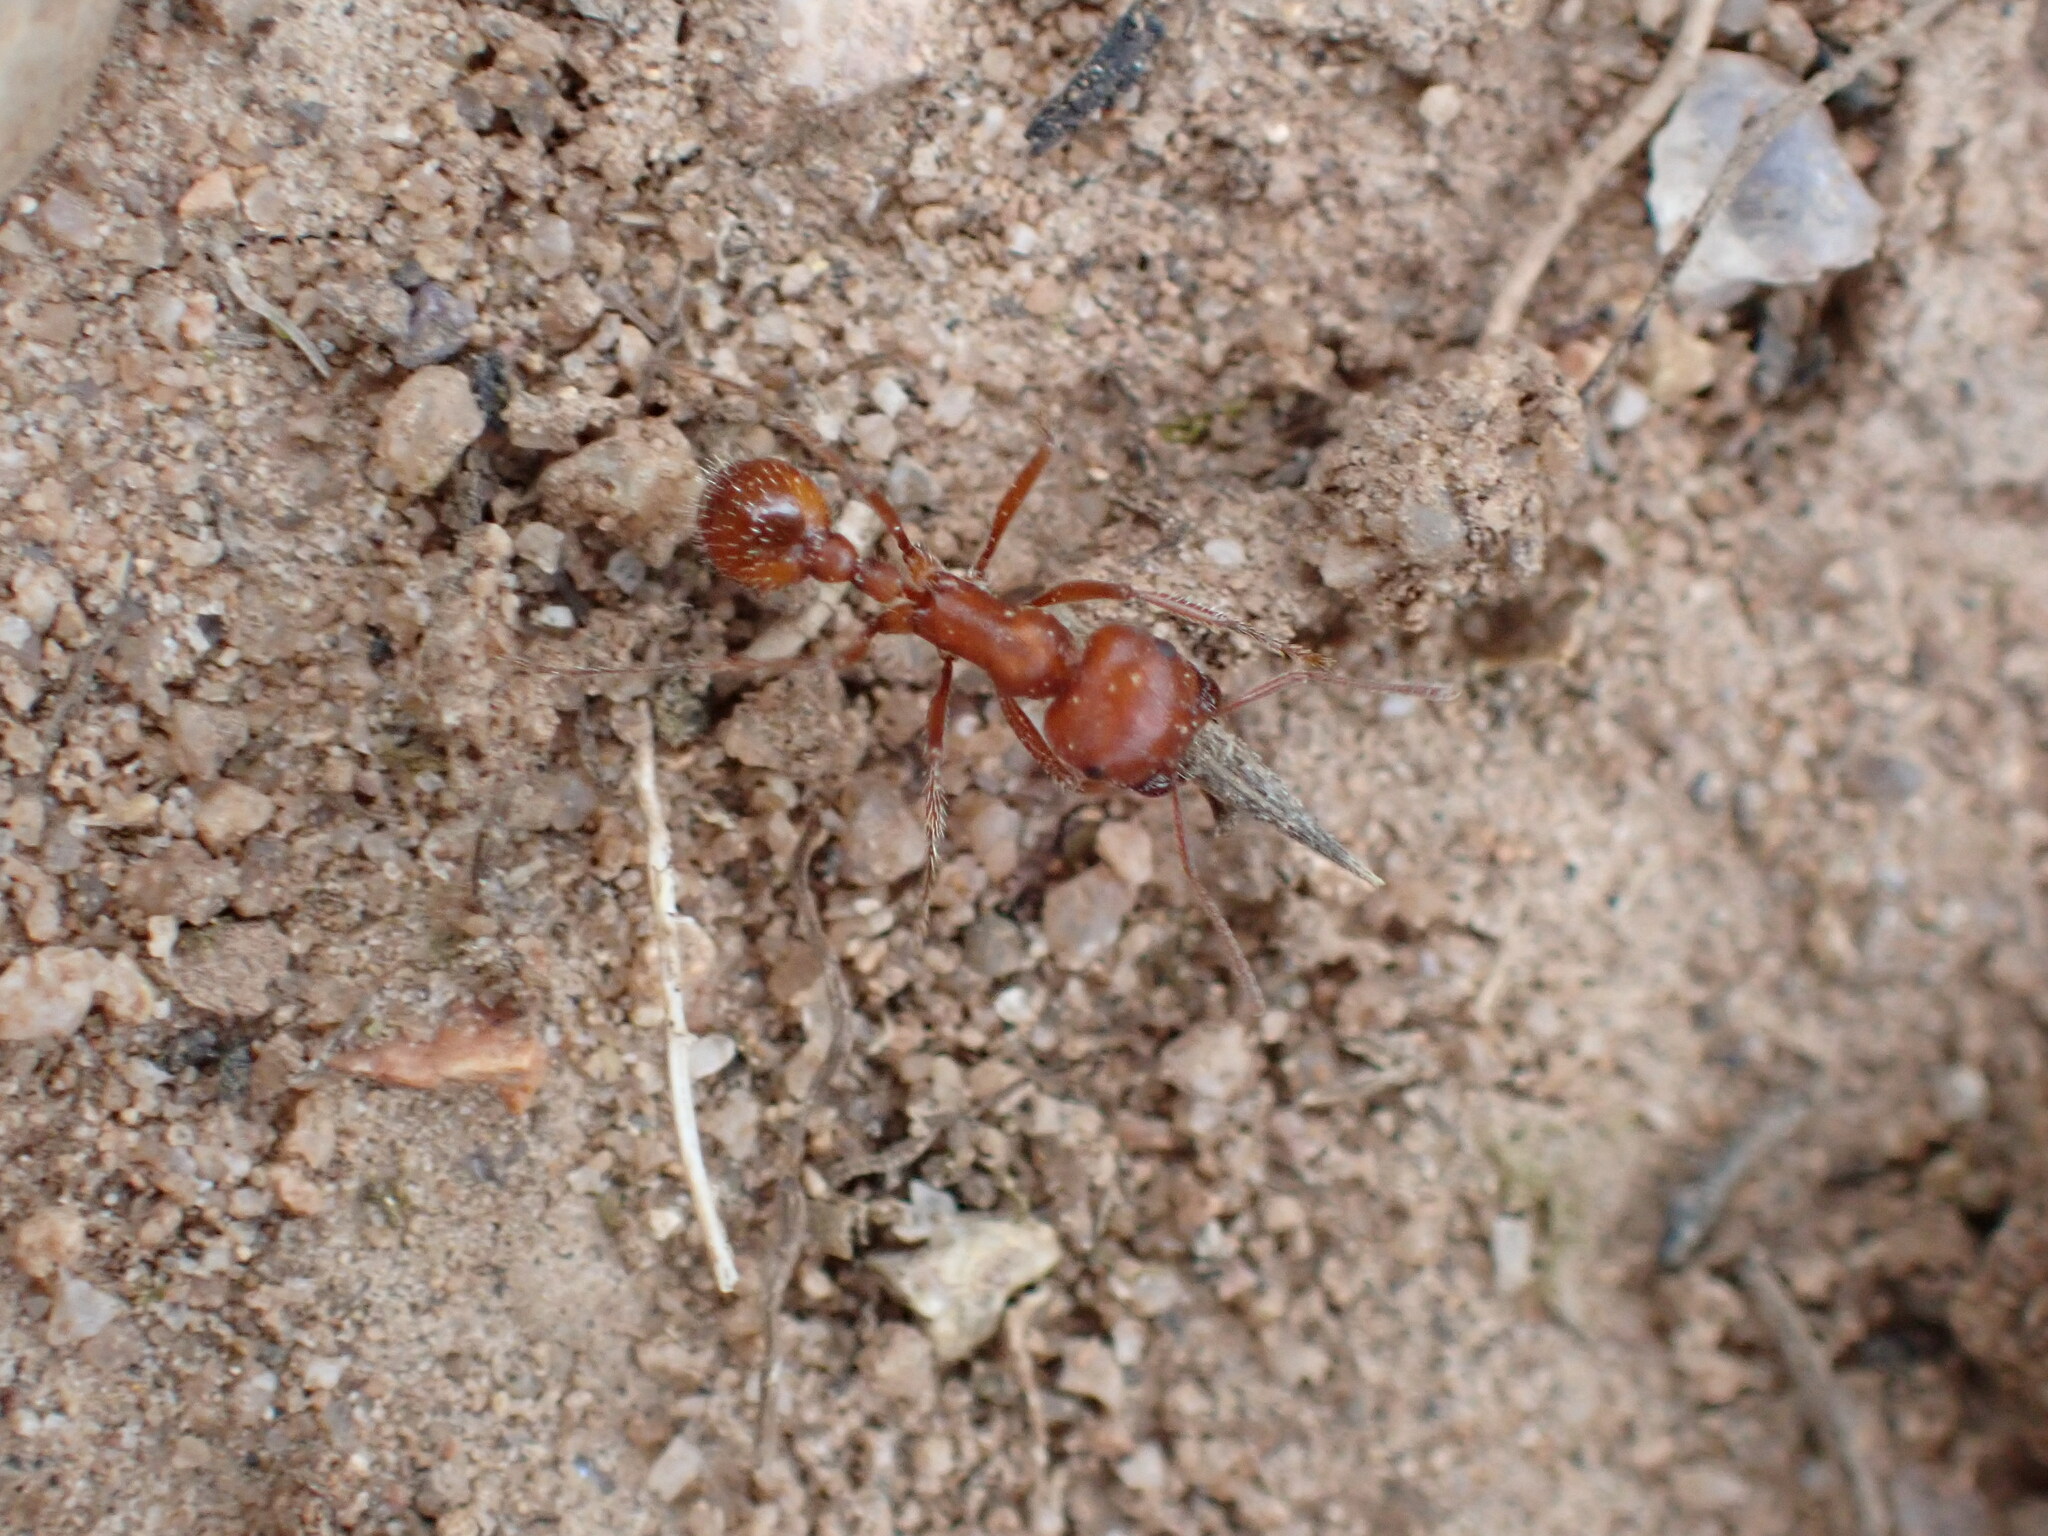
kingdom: Animalia
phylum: Arthropoda
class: Insecta
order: Hymenoptera
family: Formicidae
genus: Pogonomyrmex
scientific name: Pogonomyrmex subnitidus
